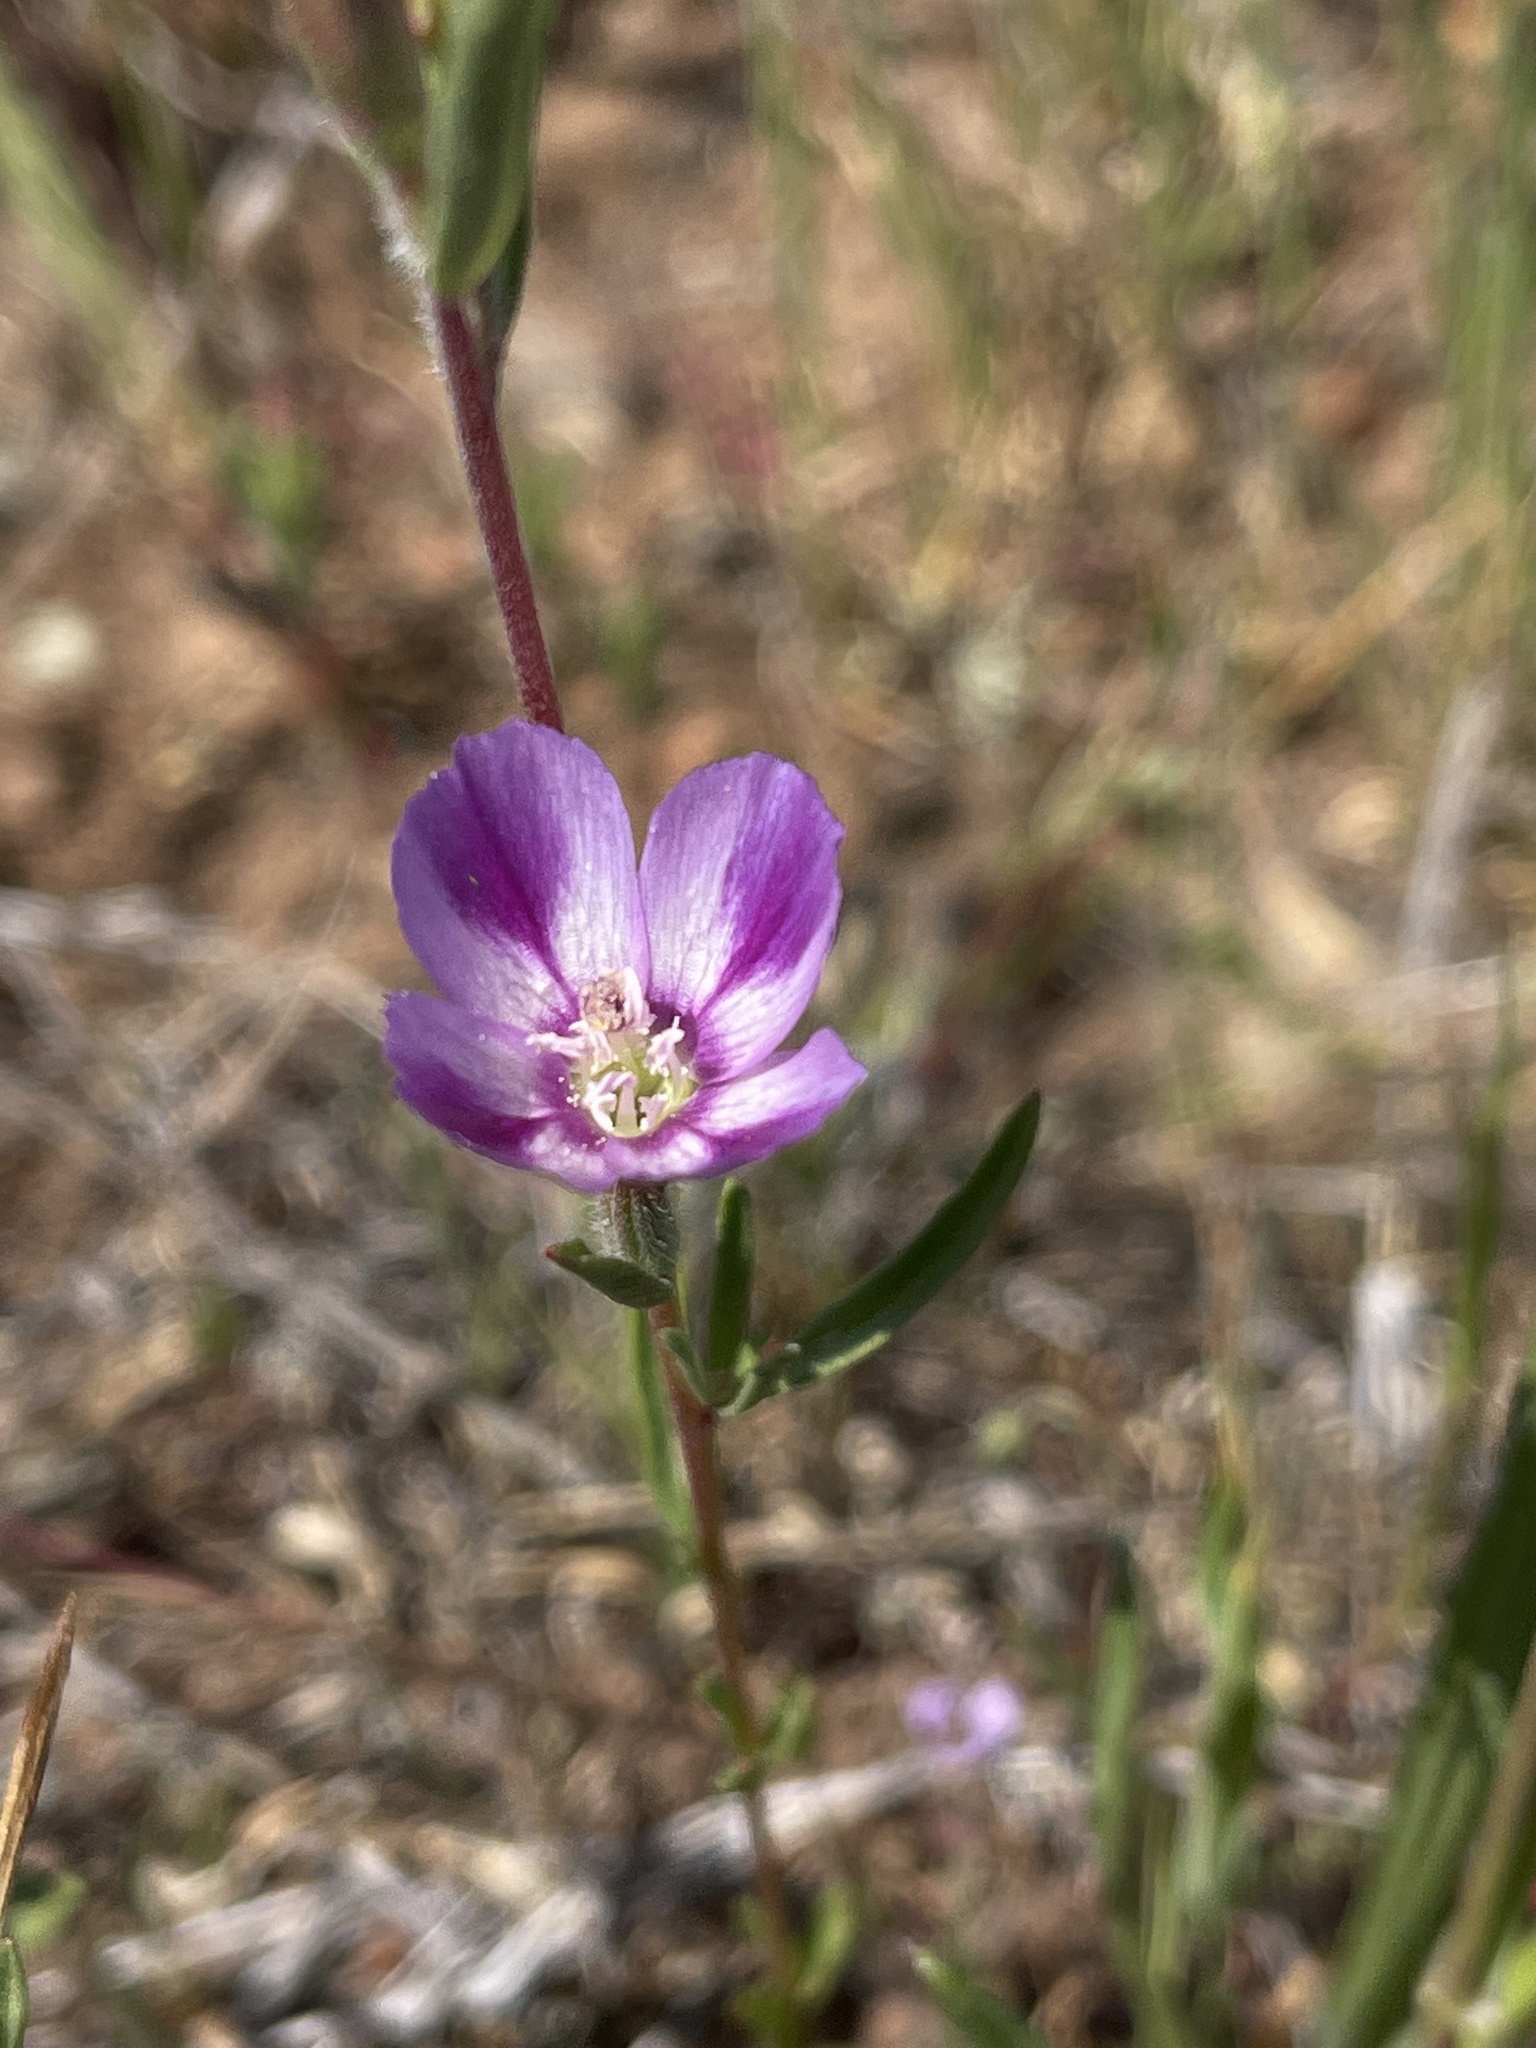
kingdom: Plantae
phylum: Tracheophyta
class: Magnoliopsida
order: Myrtales
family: Onagraceae
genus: Clarkia
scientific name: Clarkia purpurea
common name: Purple clarkia
